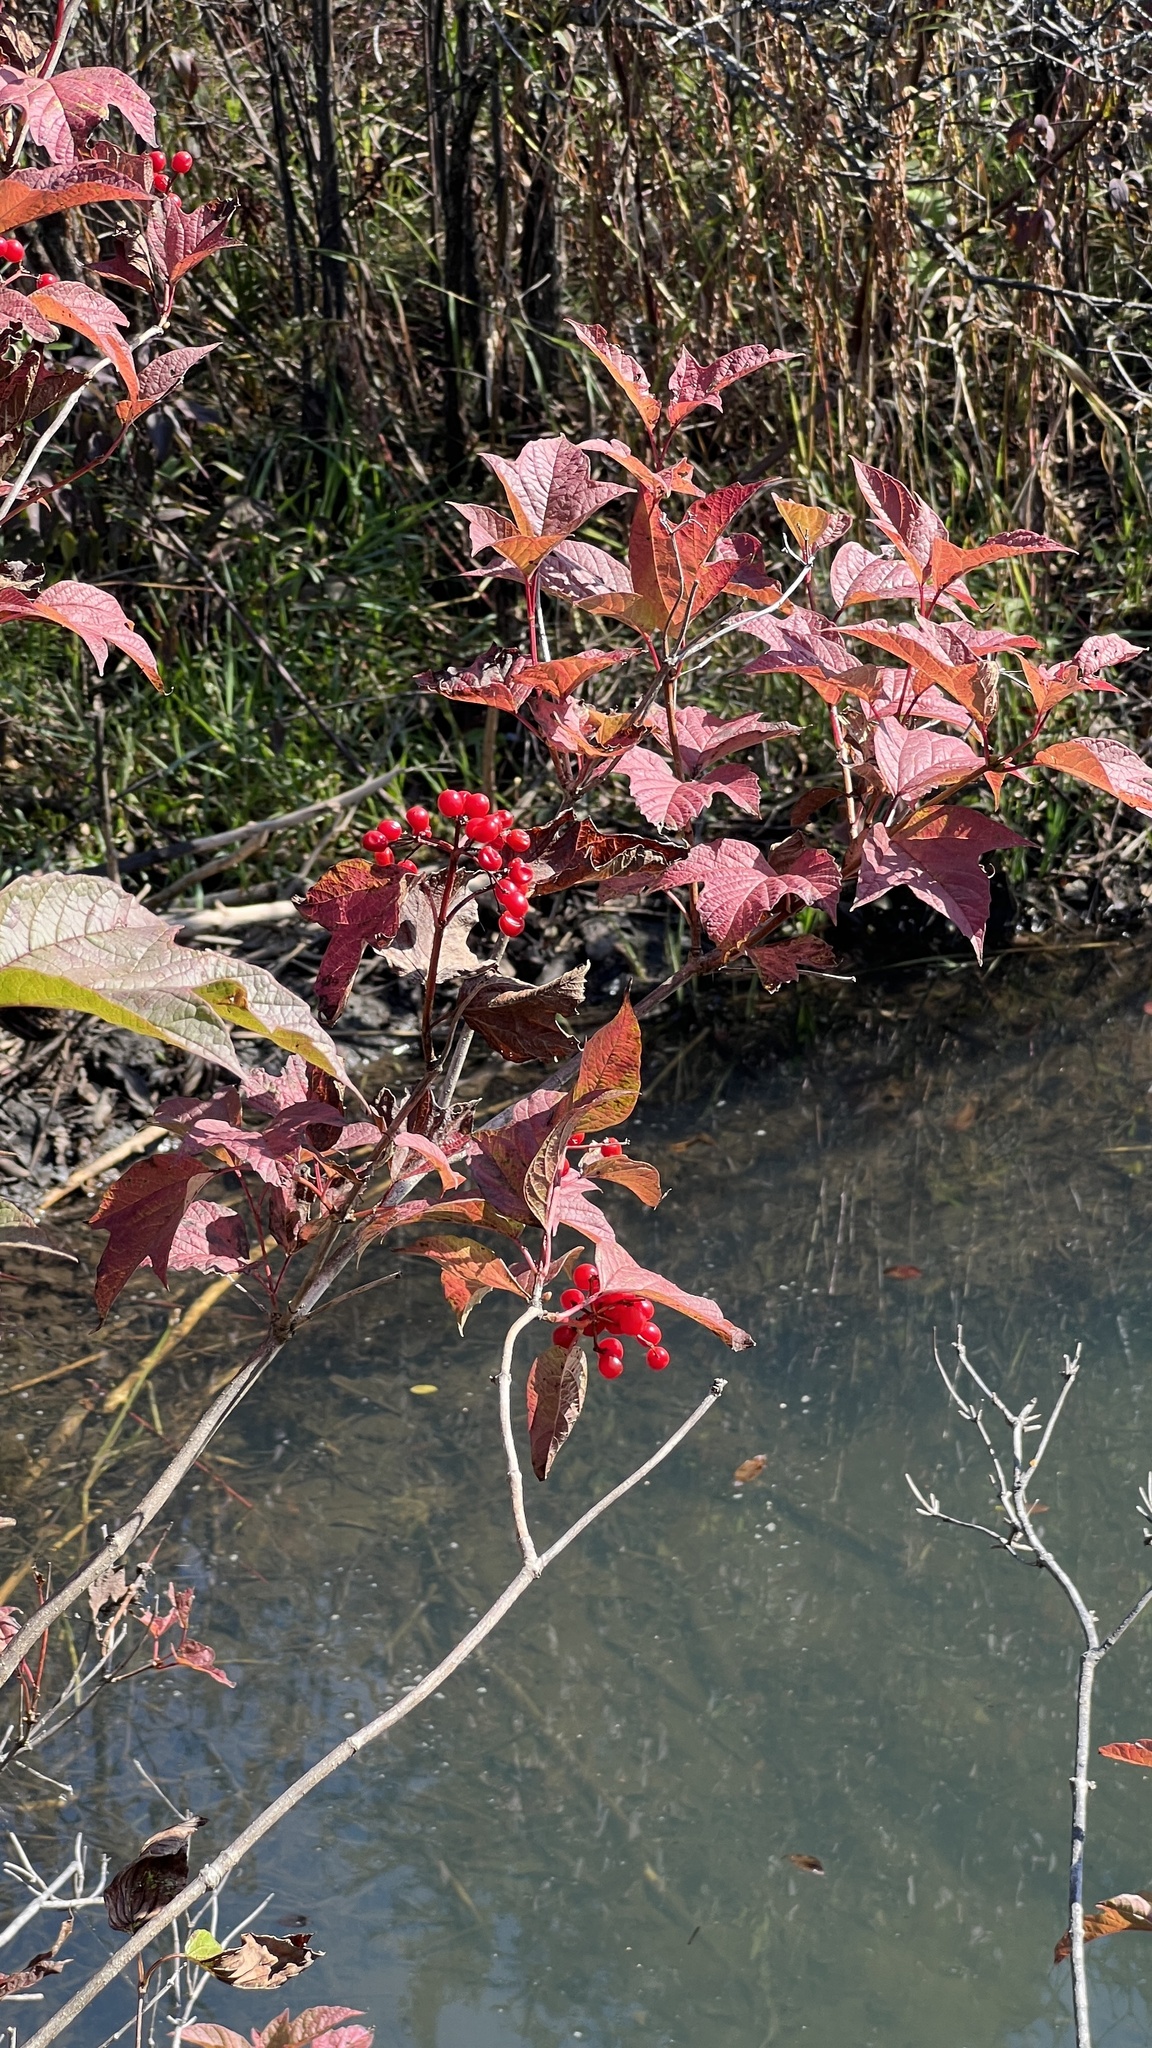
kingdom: Plantae
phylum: Tracheophyta
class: Magnoliopsida
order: Dipsacales
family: Viburnaceae
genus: Viburnum
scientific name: Viburnum opulus
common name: Guelder-rose
